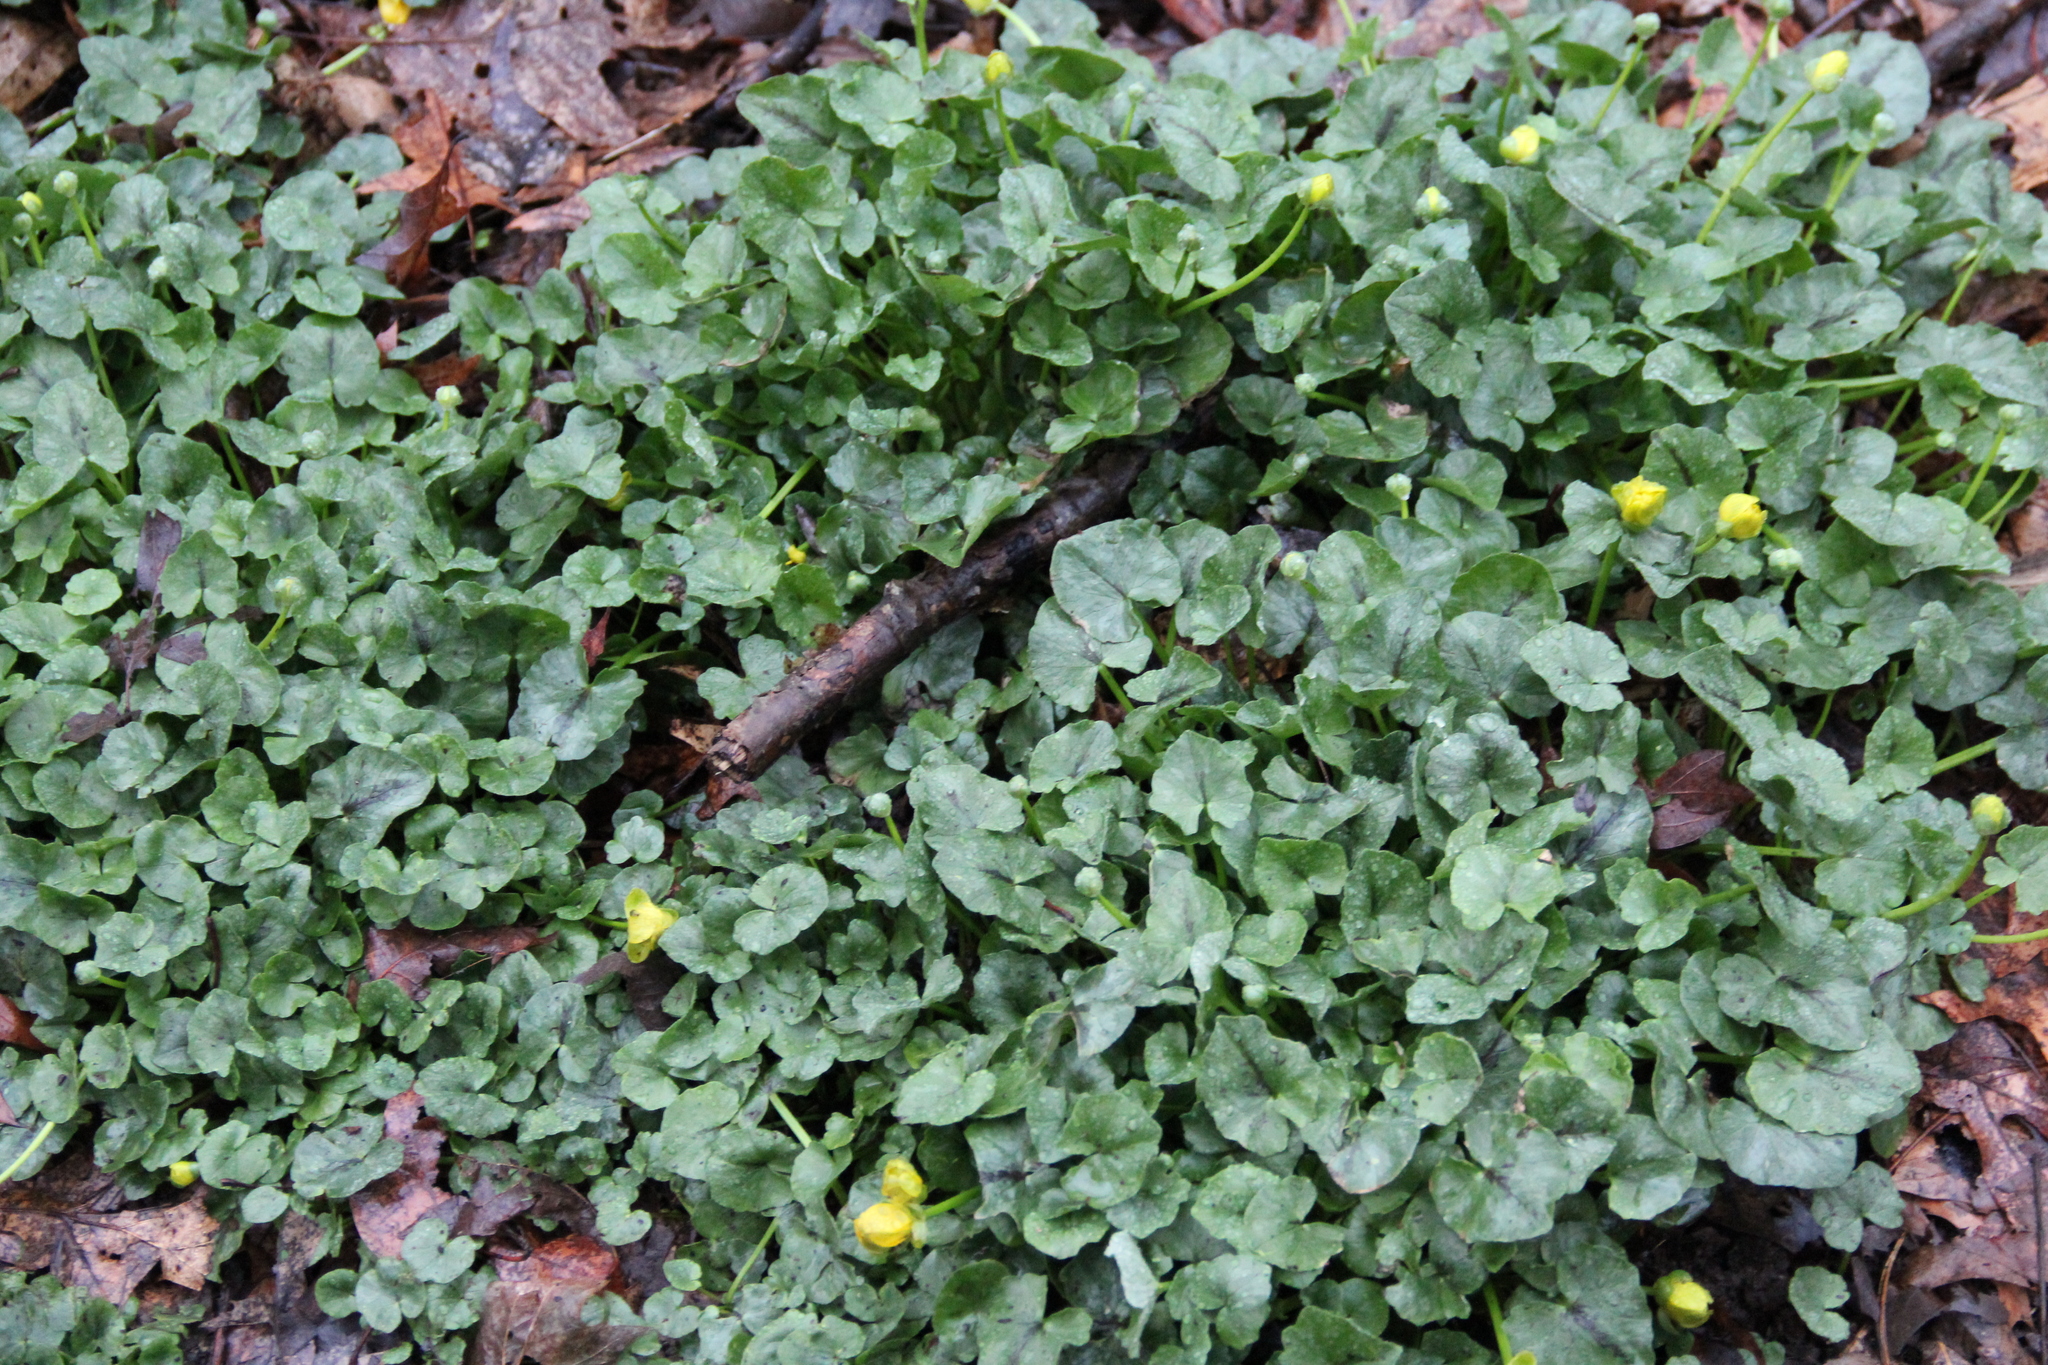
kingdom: Plantae
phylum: Tracheophyta
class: Magnoliopsida
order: Ranunculales
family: Ranunculaceae
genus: Ficaria
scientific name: Ficaria verna
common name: Lesser celandine
